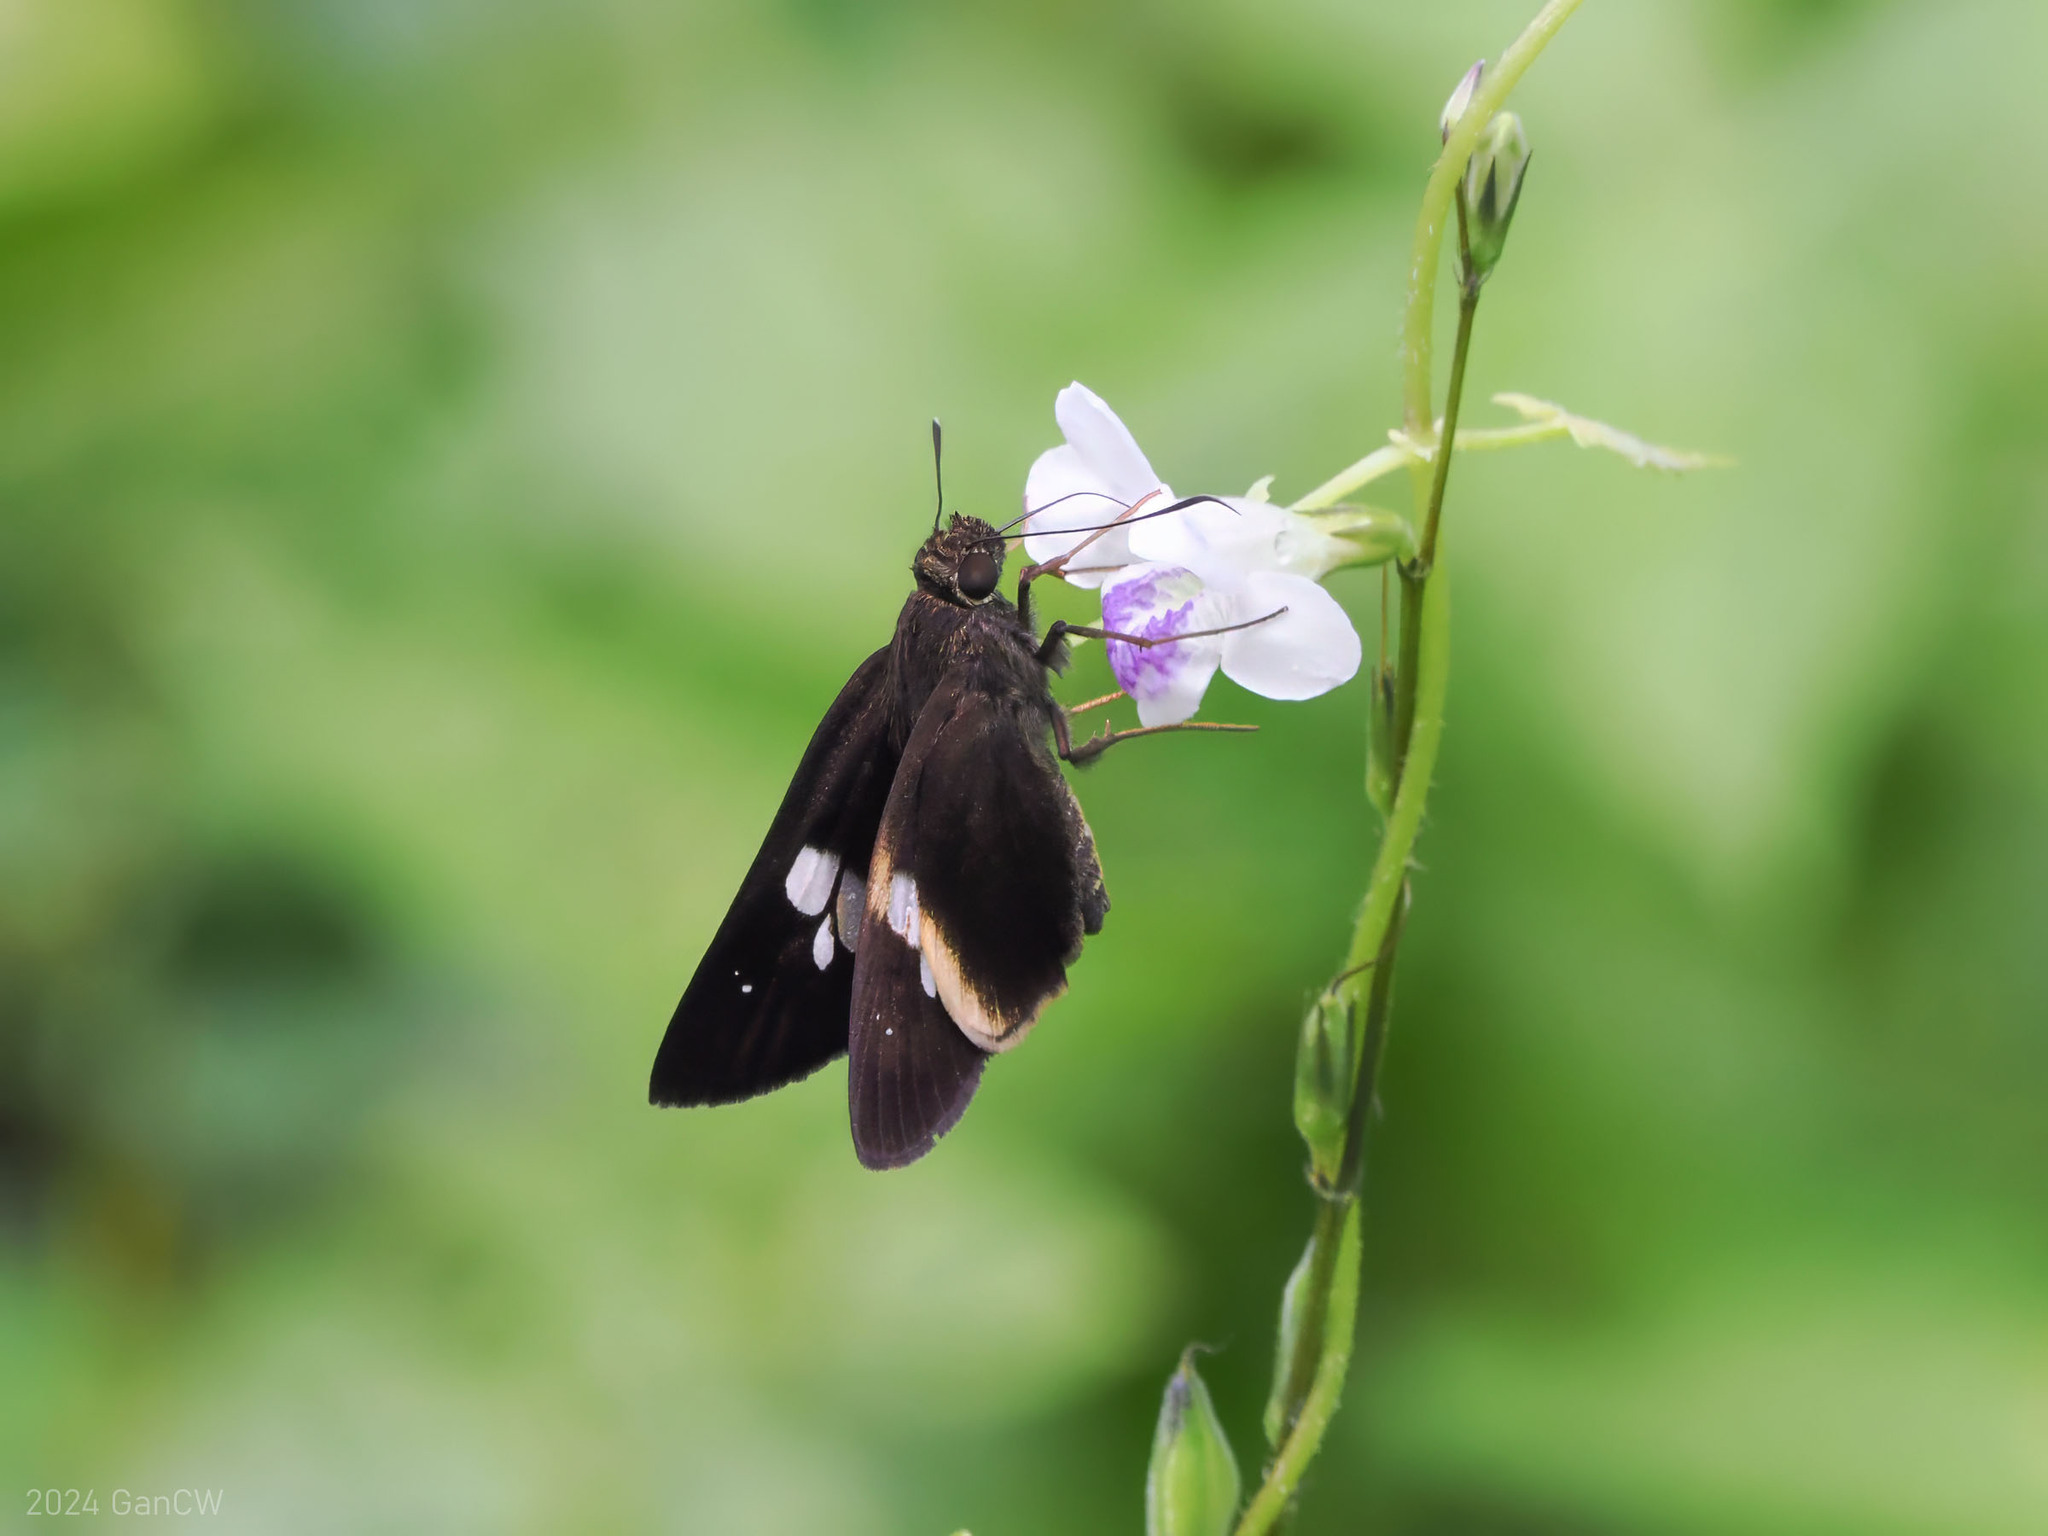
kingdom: Animalia
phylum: Arthropoda
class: Insecta
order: Lepidoptera
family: Hesperiidae
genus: Lotongus
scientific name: Lotongus calathus
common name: White-tipped palmer
